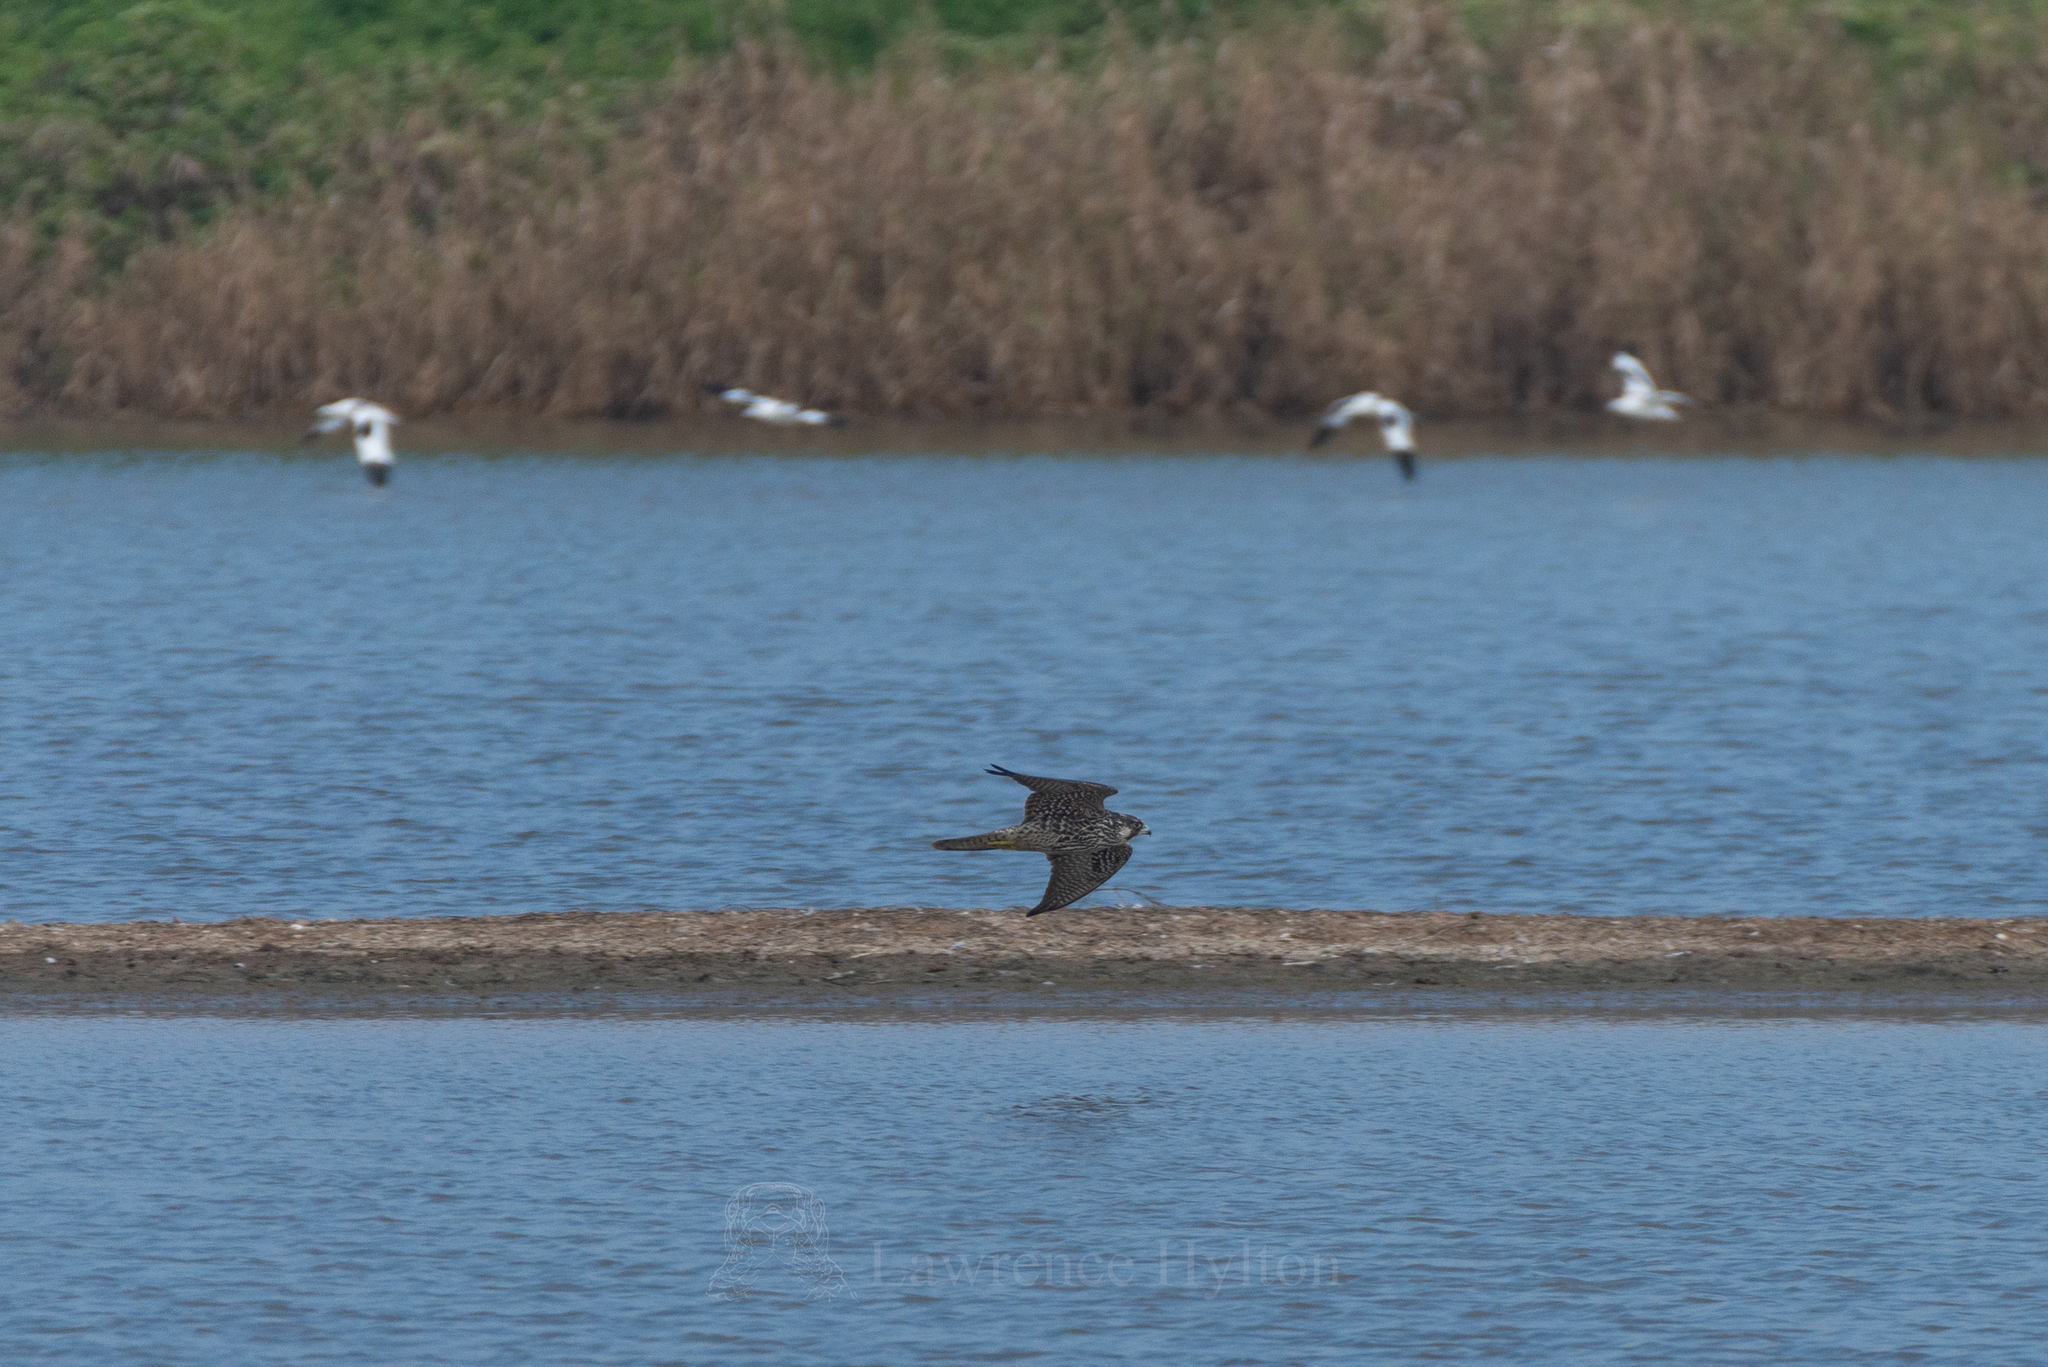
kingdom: Animalia
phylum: Chordata
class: Aves
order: Falconiformes
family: Falconidae
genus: Falco
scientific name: Falco peregrinus
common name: Peregrine falcon
